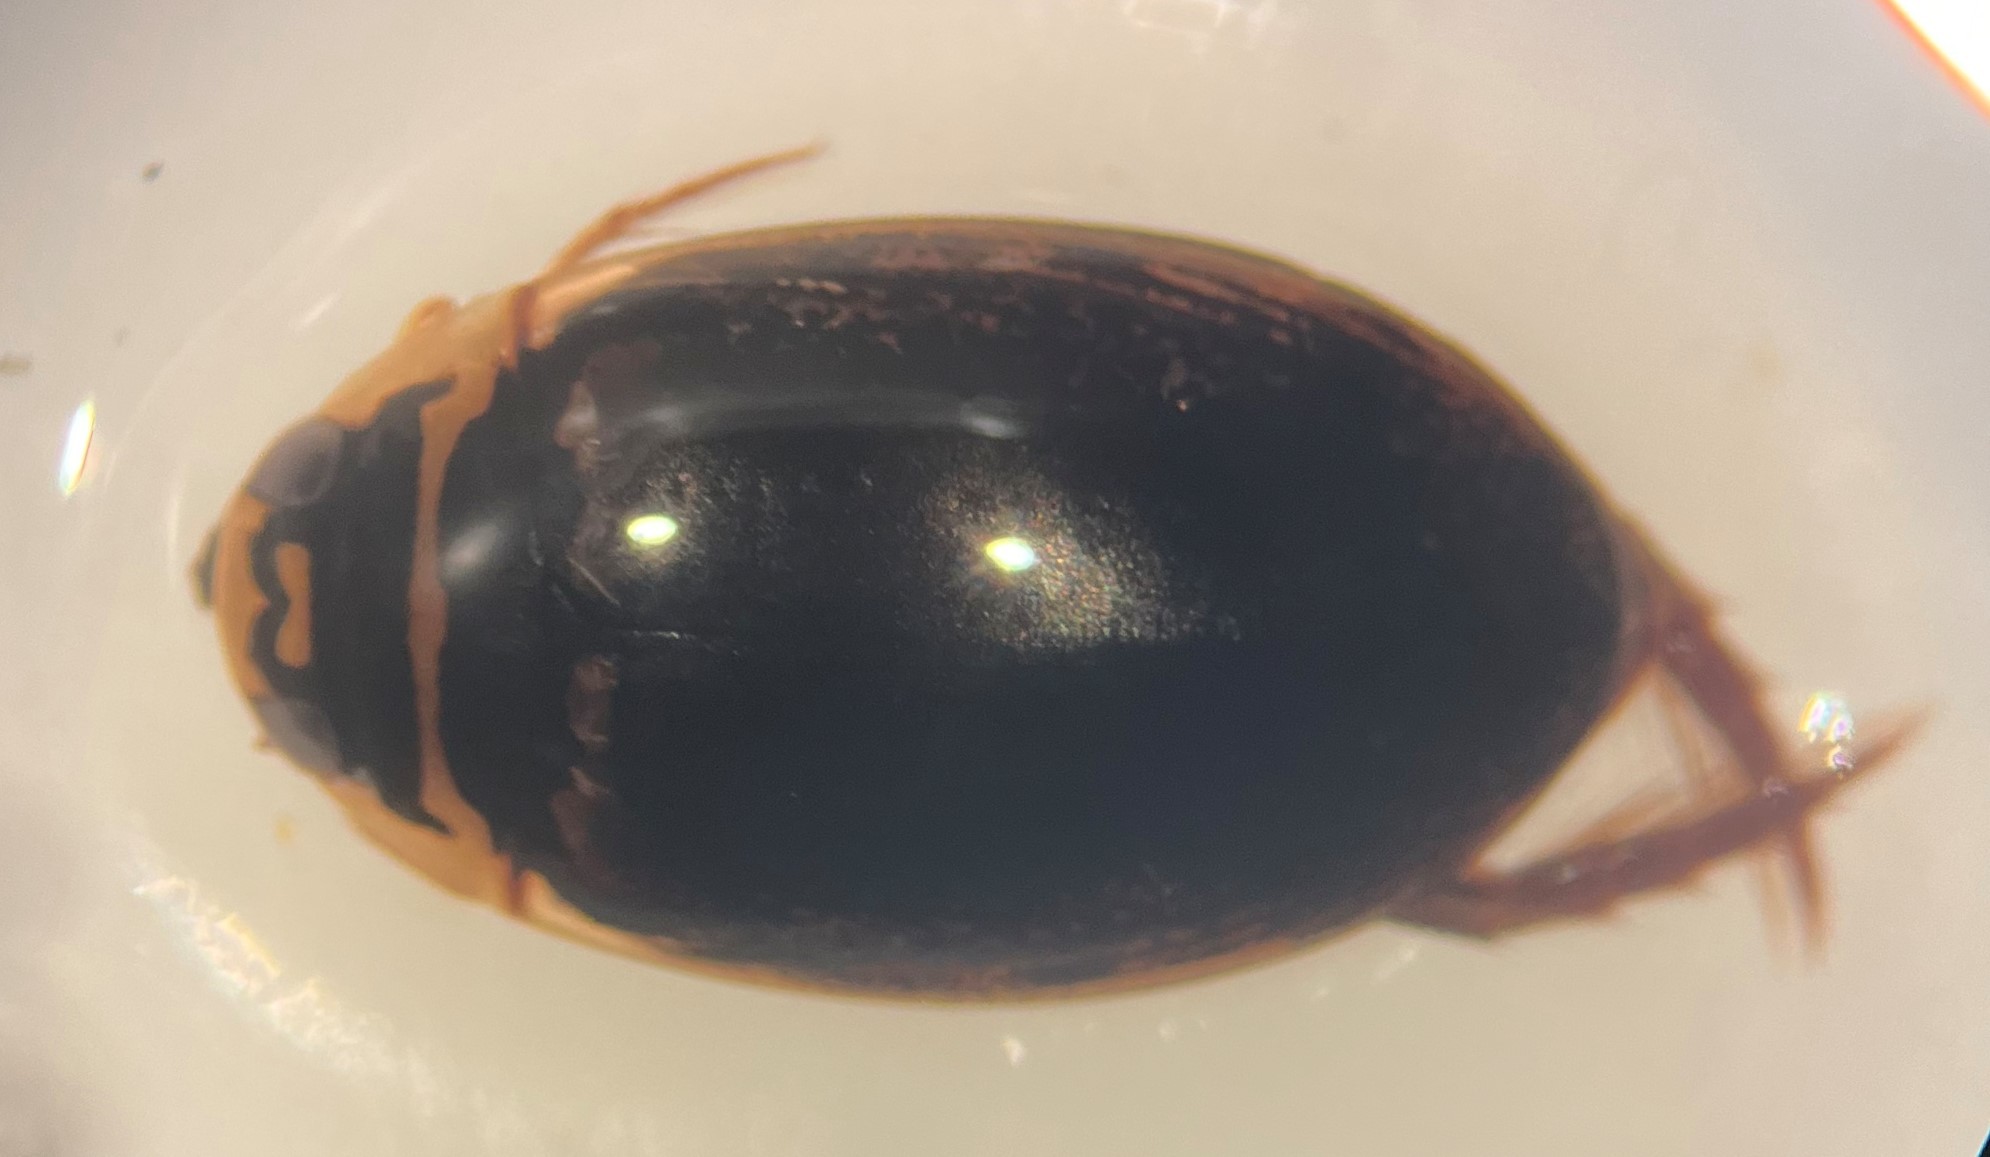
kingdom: Animalia
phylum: Arthropoda
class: Insecta
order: Coleoptera
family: Dytiscidae
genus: Thermonectus
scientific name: Thermonectus basillaris
